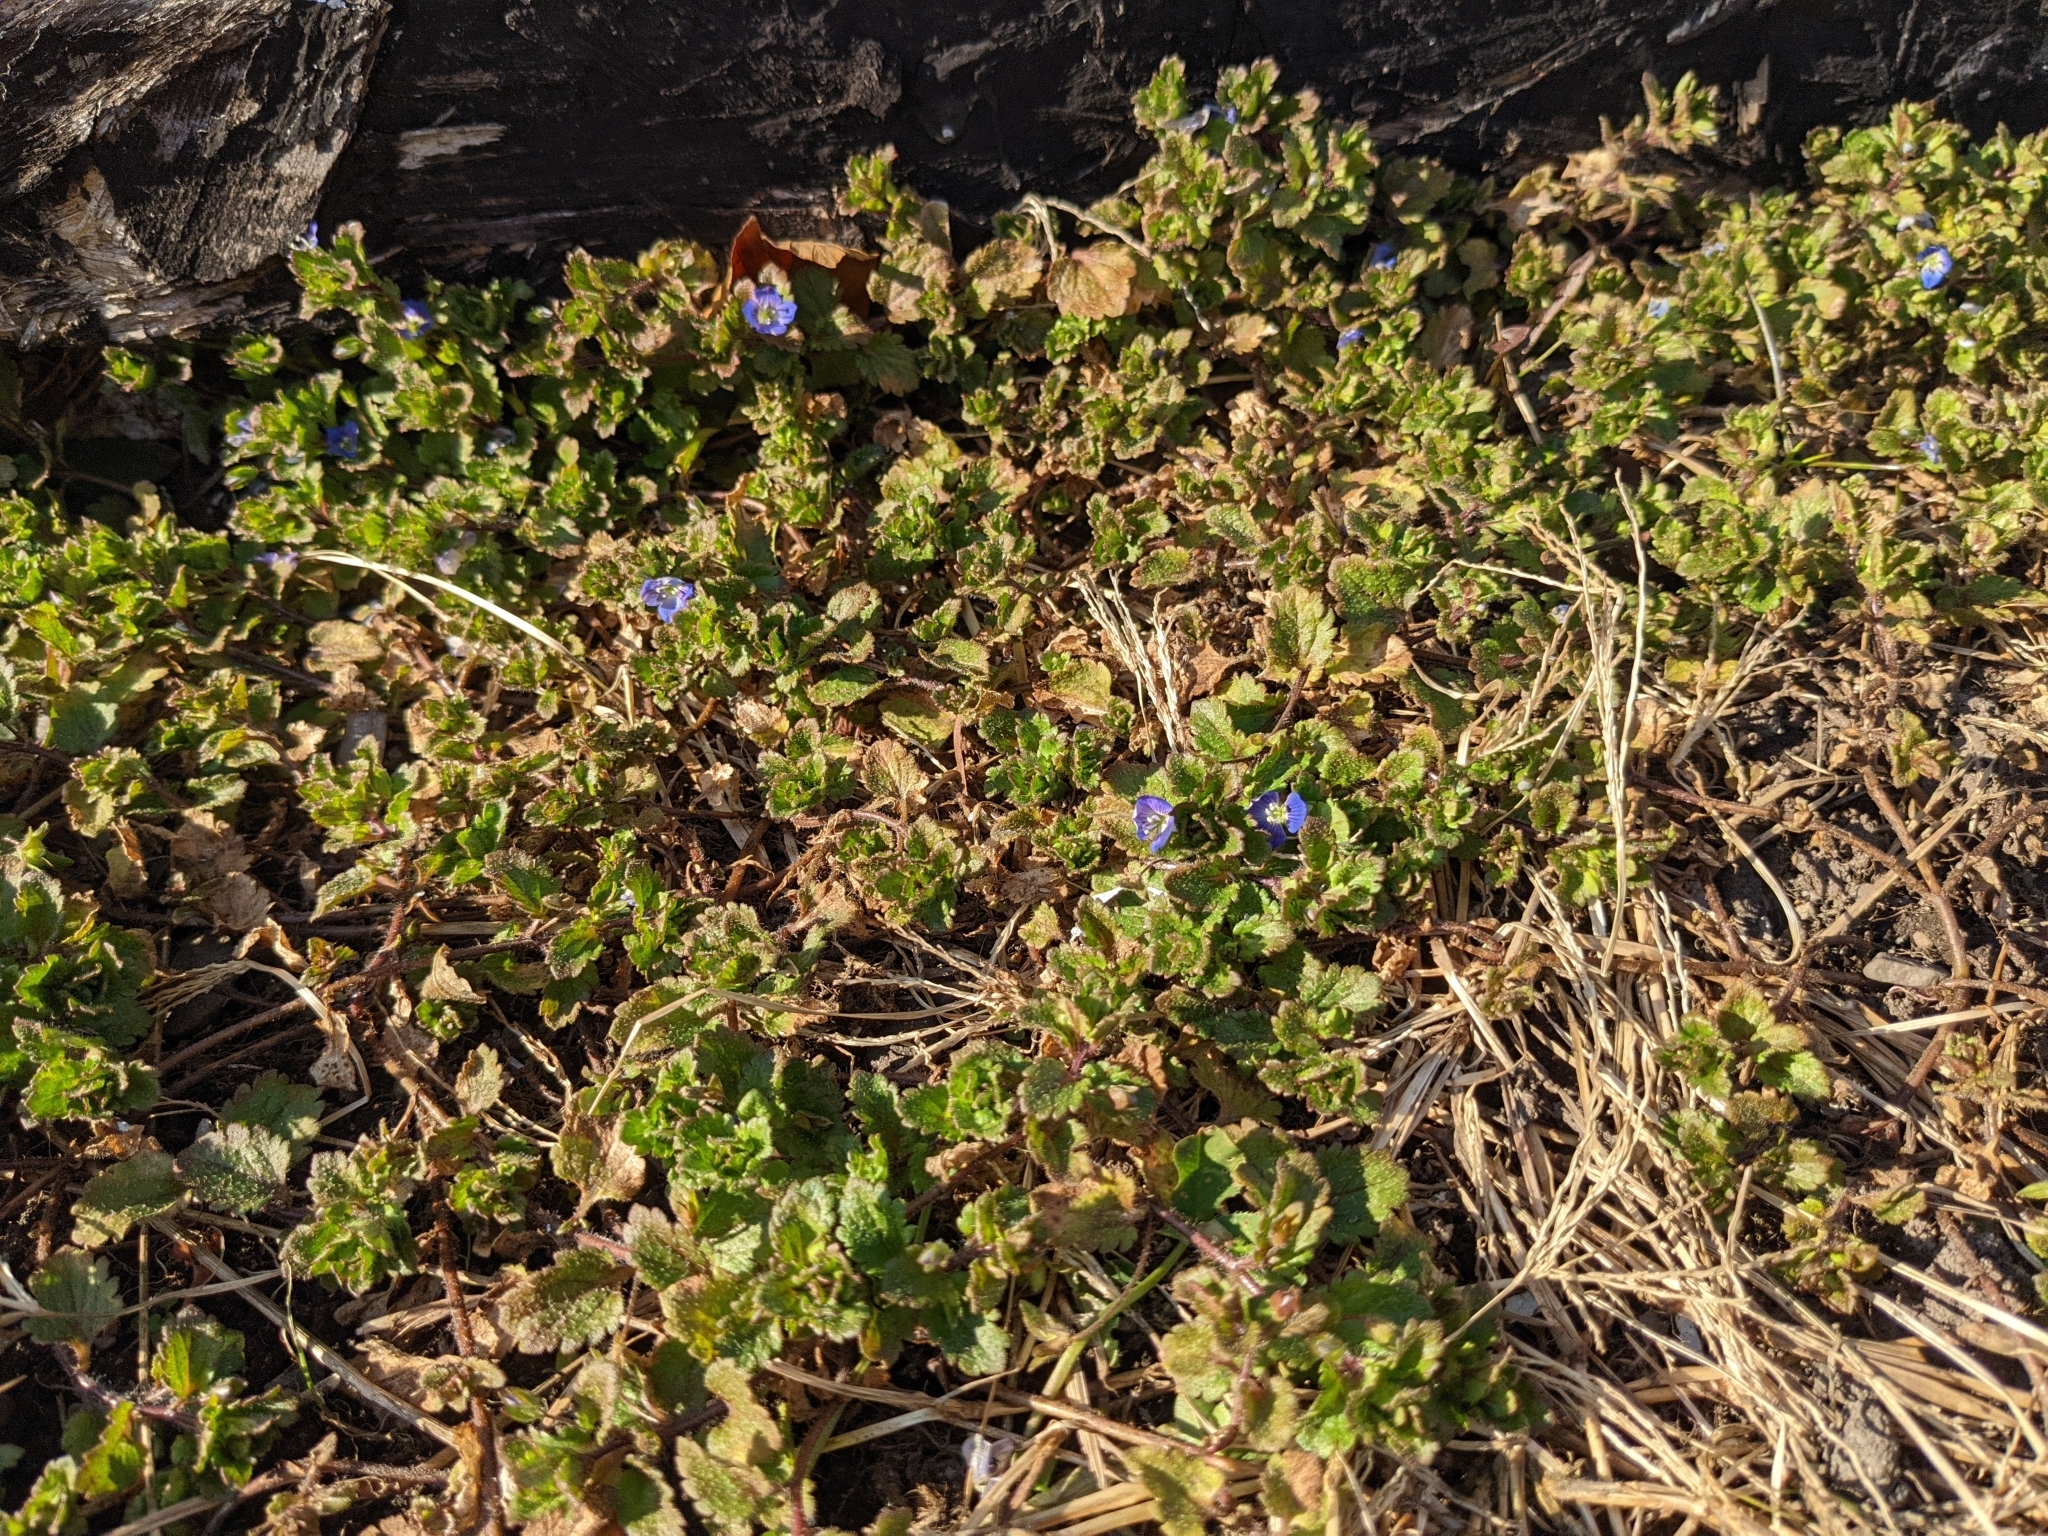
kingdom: Plantae
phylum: Tracheophyta
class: Magnoliopsida
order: Lamiales
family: Plantaginaceae
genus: Veronica
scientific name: Veronica persica
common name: Common field-speedwell
